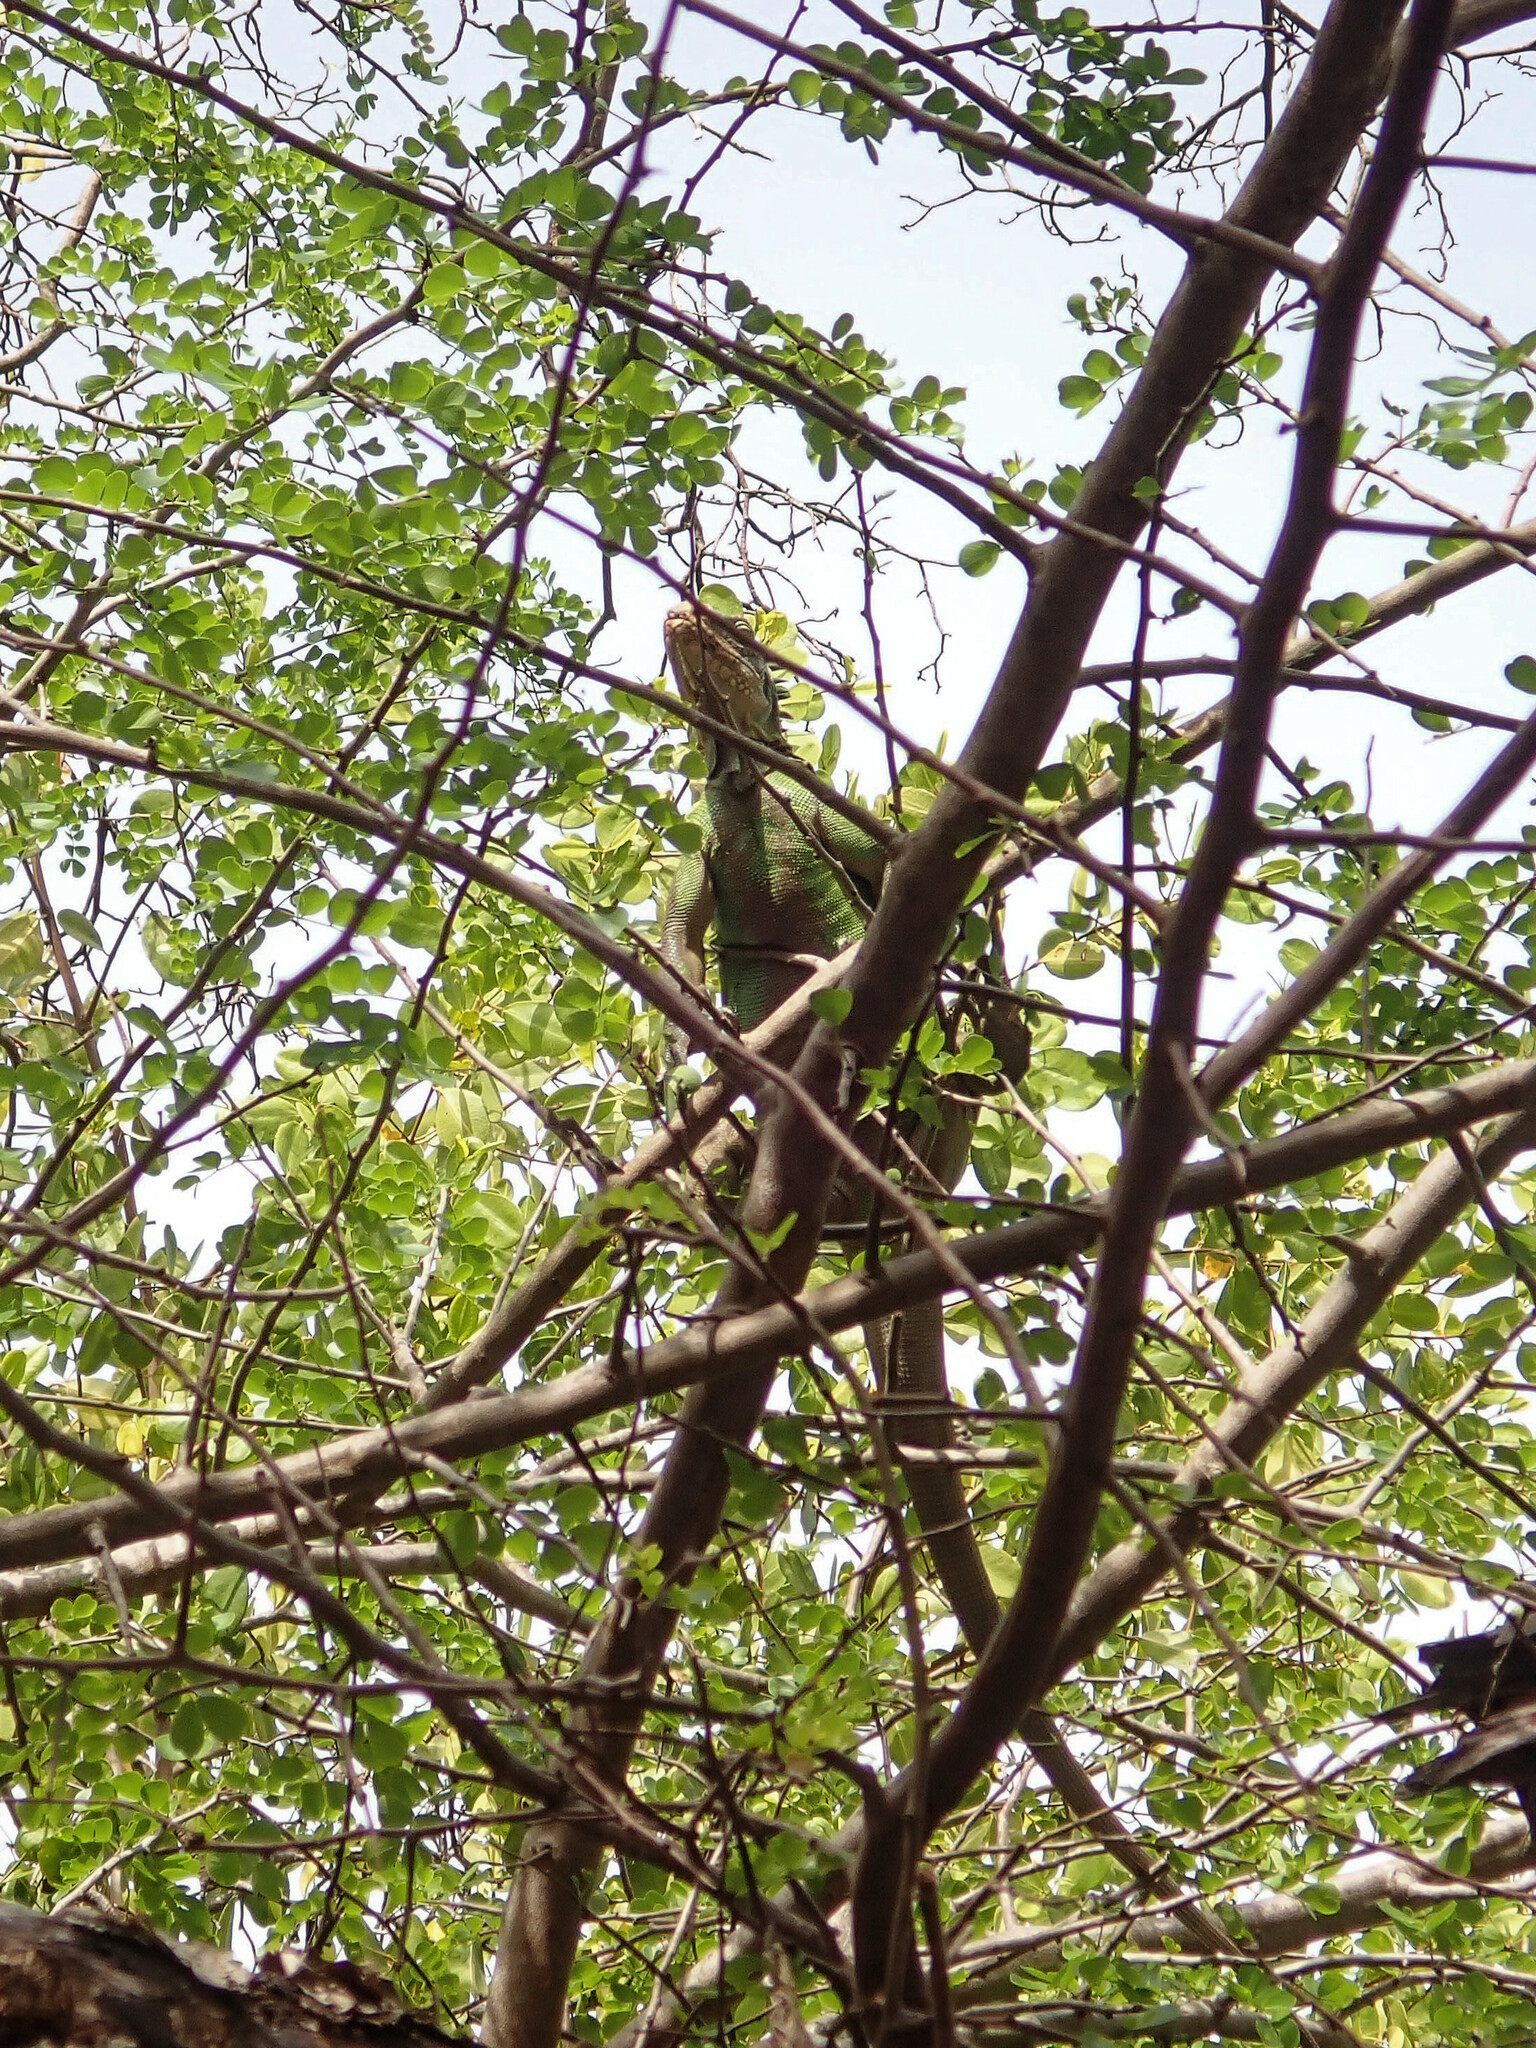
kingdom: Animalia
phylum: Chordata
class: Squamata
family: Iguanidae
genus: Iguana
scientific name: Iguana delicatissima
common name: West indian iguana
